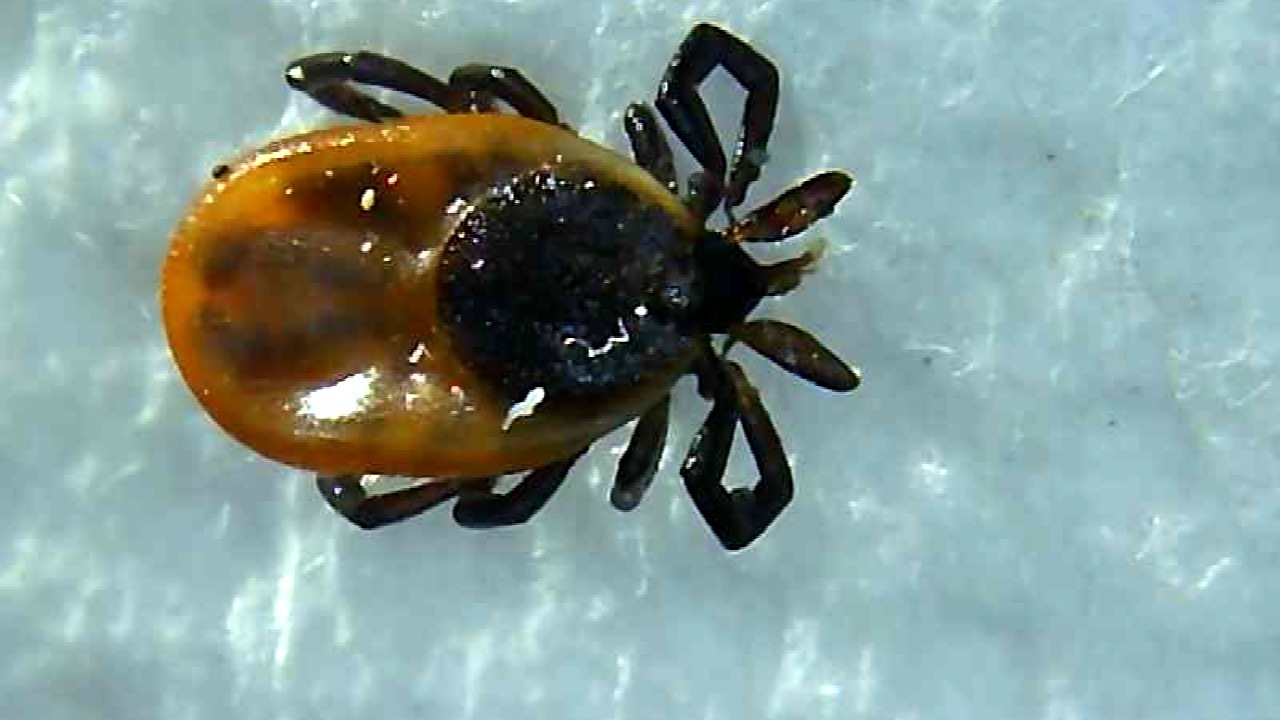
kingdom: Animalia
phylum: Arthropoda
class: Arachnida
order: Ixodida
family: Ixodidae
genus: Ixodes
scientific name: Ixodes scapularis
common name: Black legged tick
